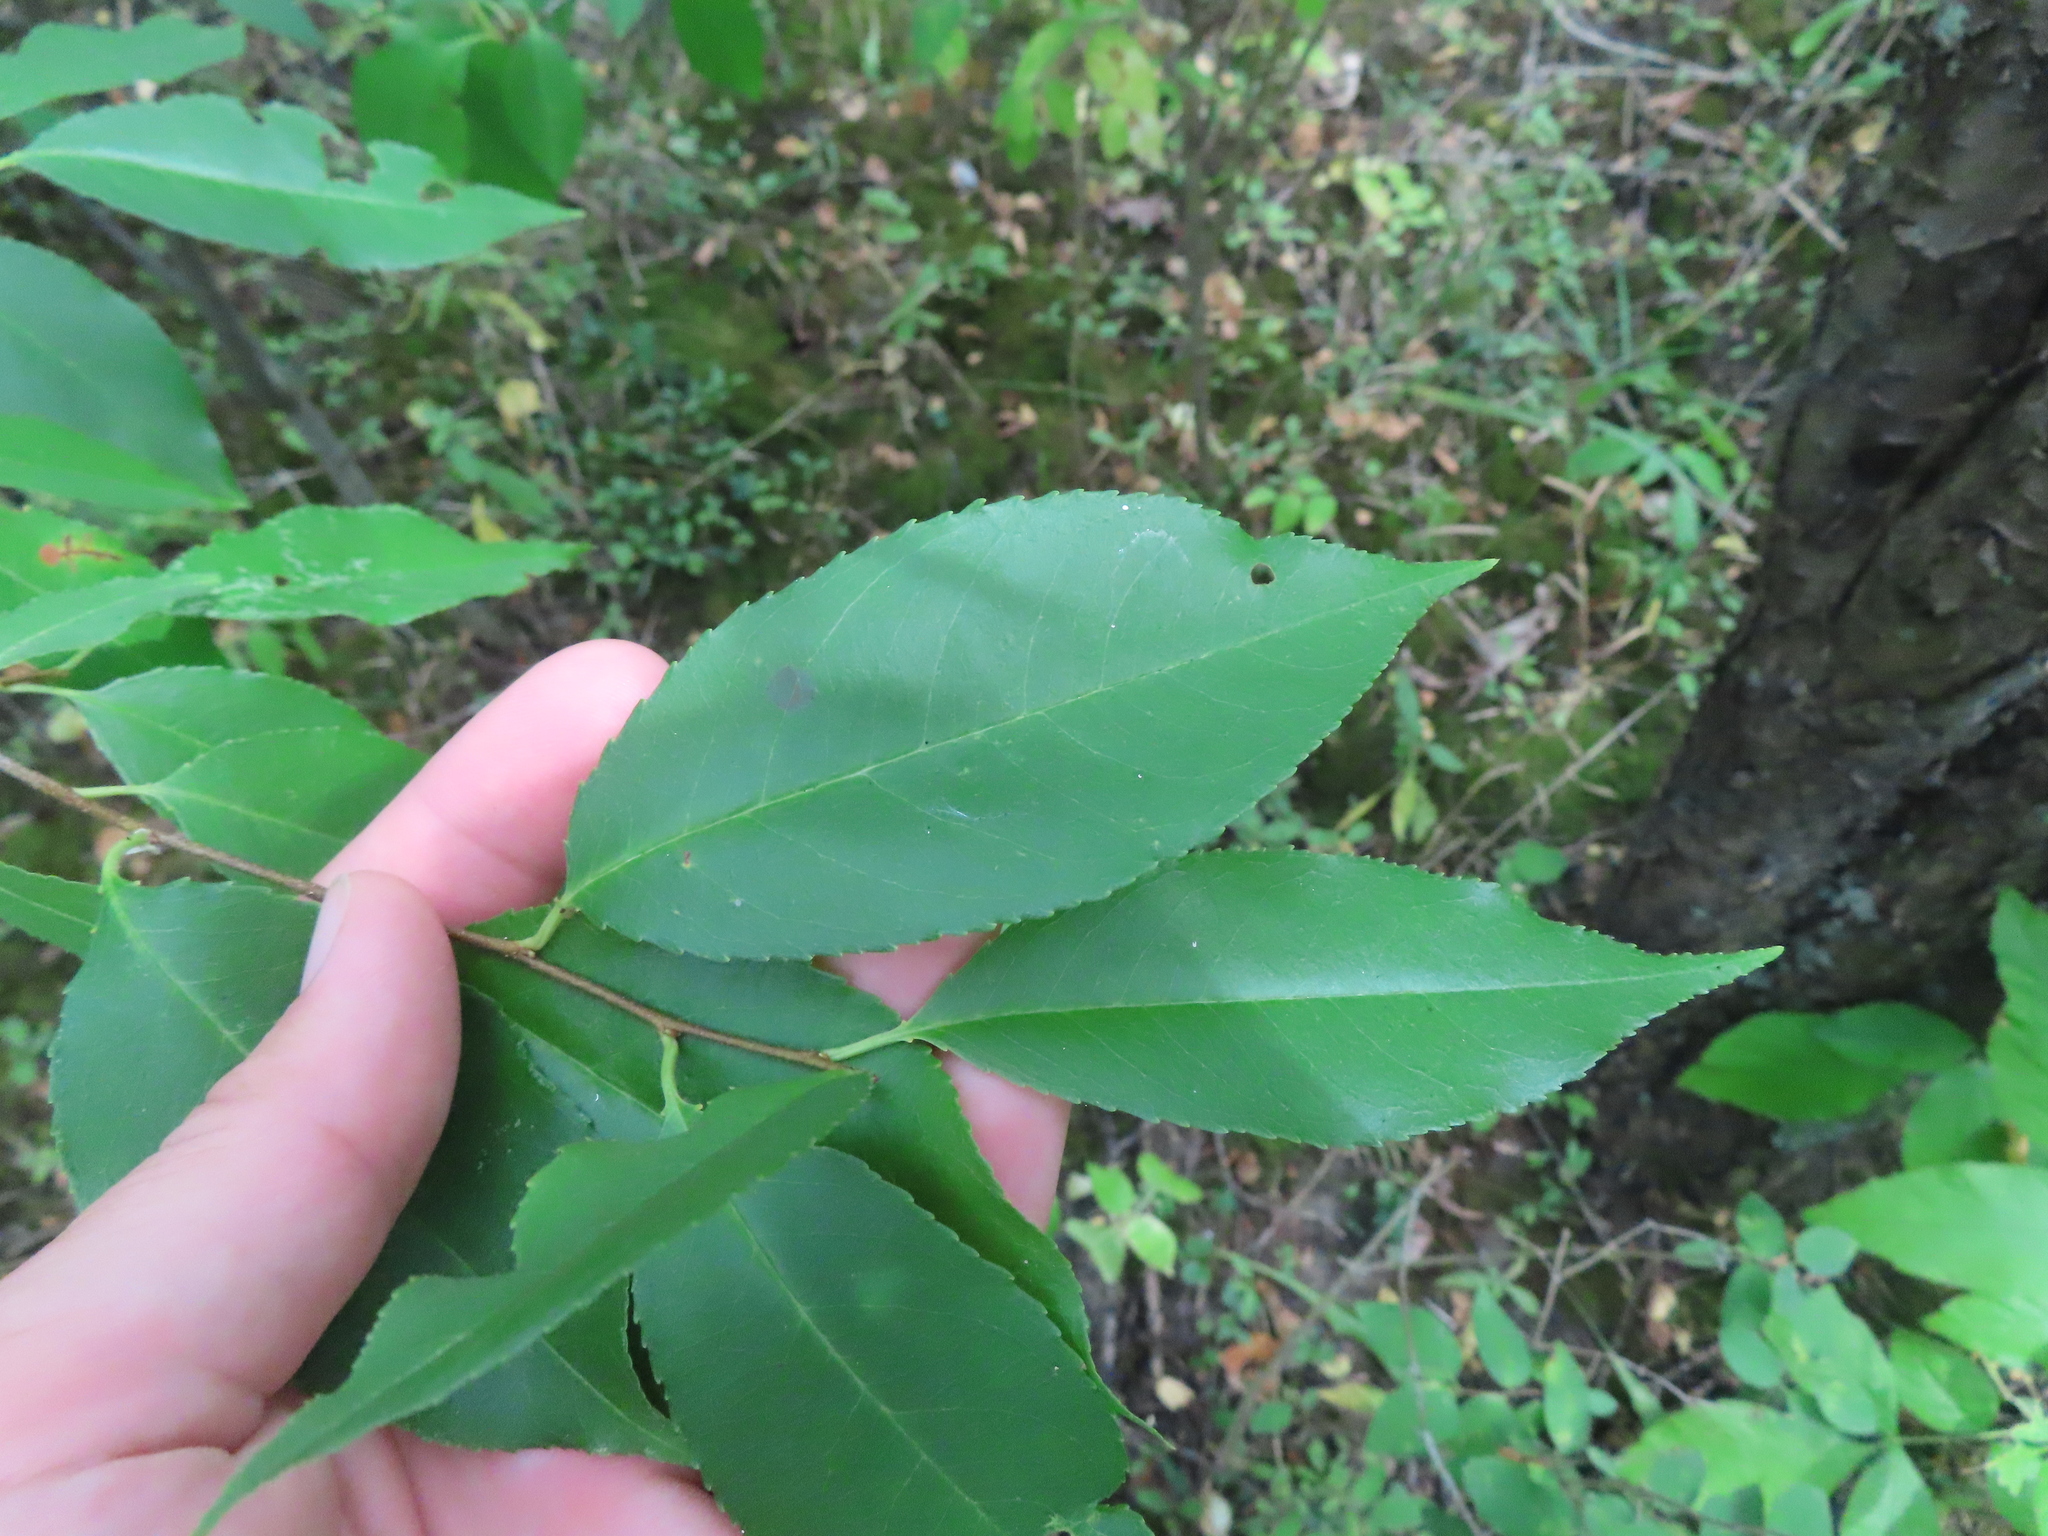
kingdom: Plantae
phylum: Tracheophyta
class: Magnoliopsida
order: Rosales
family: Rosaceae
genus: Prunus
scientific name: Prunus serotina
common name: Black cherry
